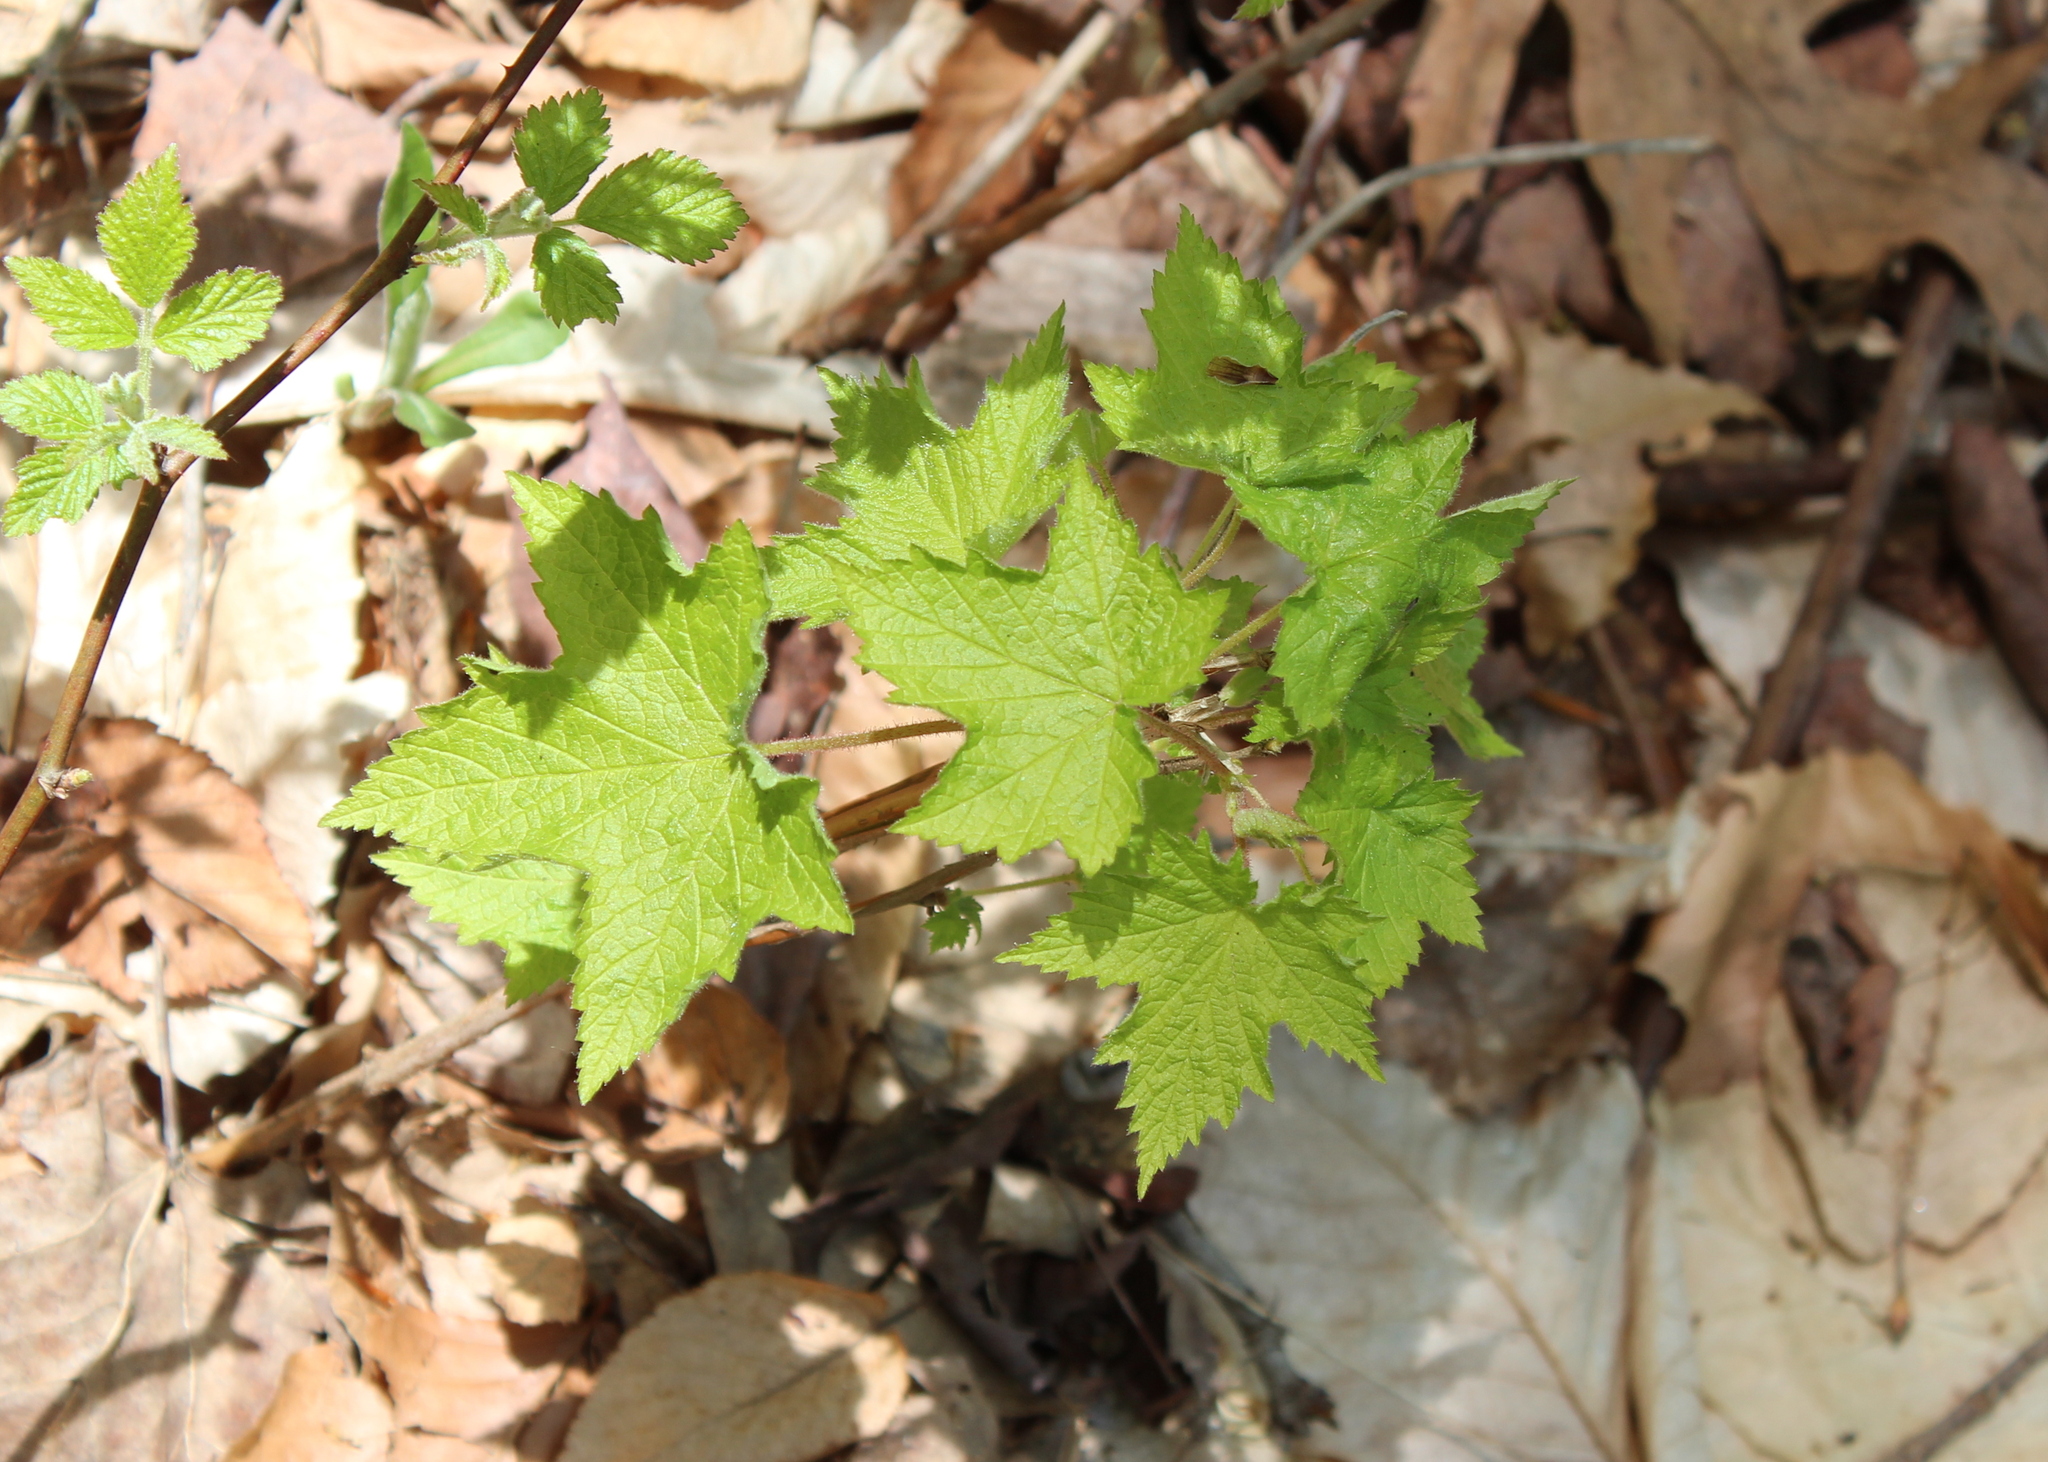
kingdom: Plantae
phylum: Tracheophyta
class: Magnoliopsida
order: Rosales
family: Rosaceae
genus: Rubus
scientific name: Rubus odoratus
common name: Purple-flowered raspberry
